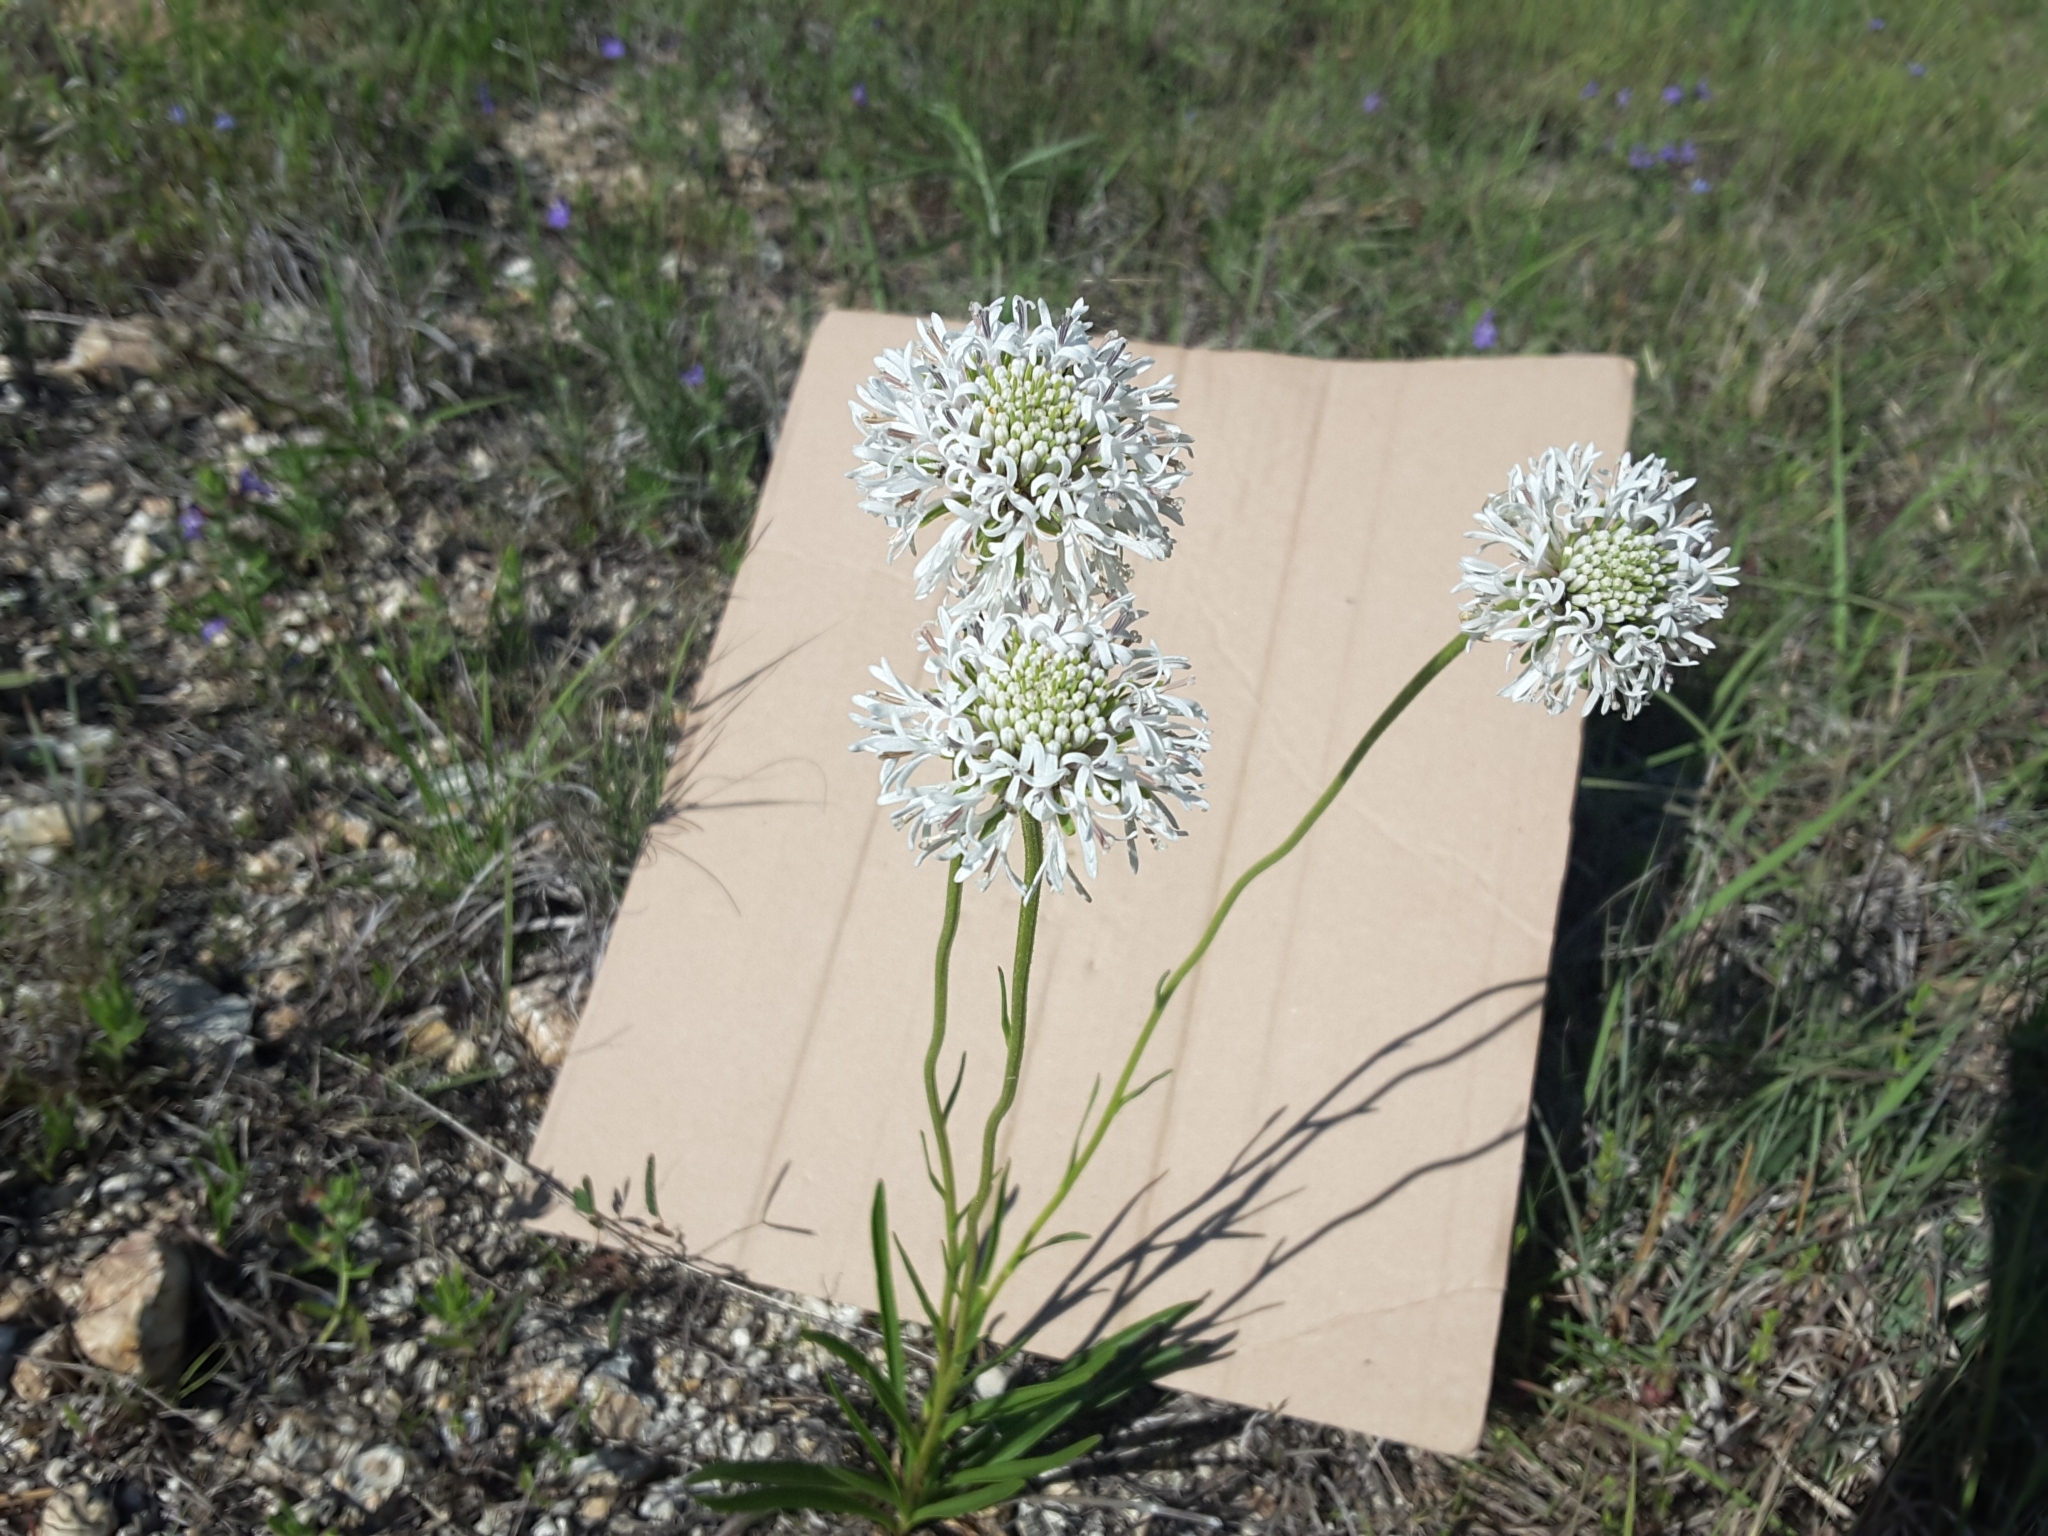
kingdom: Plantae
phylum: Tracheophyta
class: Magnoliopsida
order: Asterales
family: Asteraceae
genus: Marshallia
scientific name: Marshallia caespitosa
